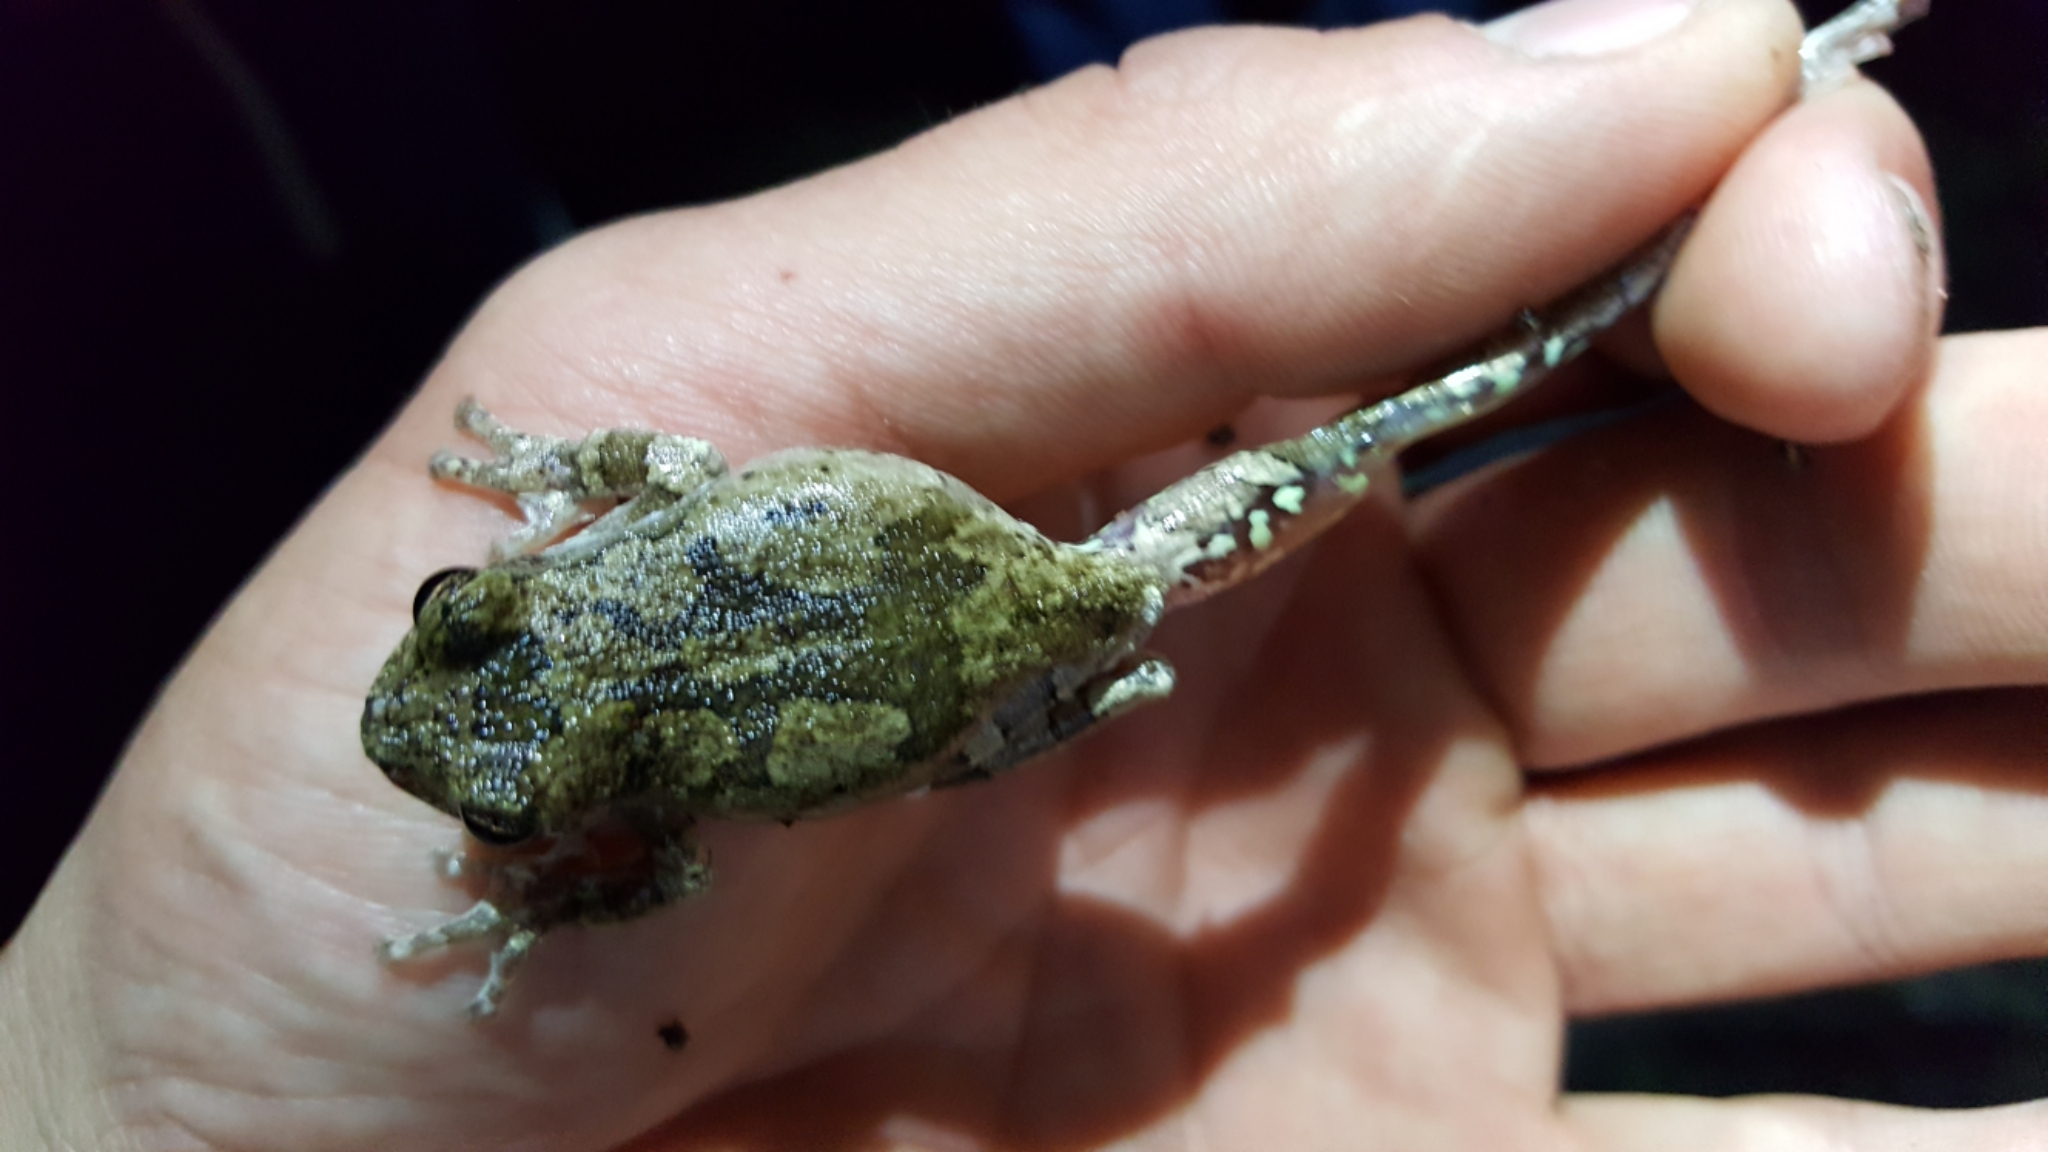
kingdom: Animalia
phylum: Chordata
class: Amphibia
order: Anura
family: Hylidae
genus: Dryophytes
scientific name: Dryophytes avivoca
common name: Bird-voiced treefrog
